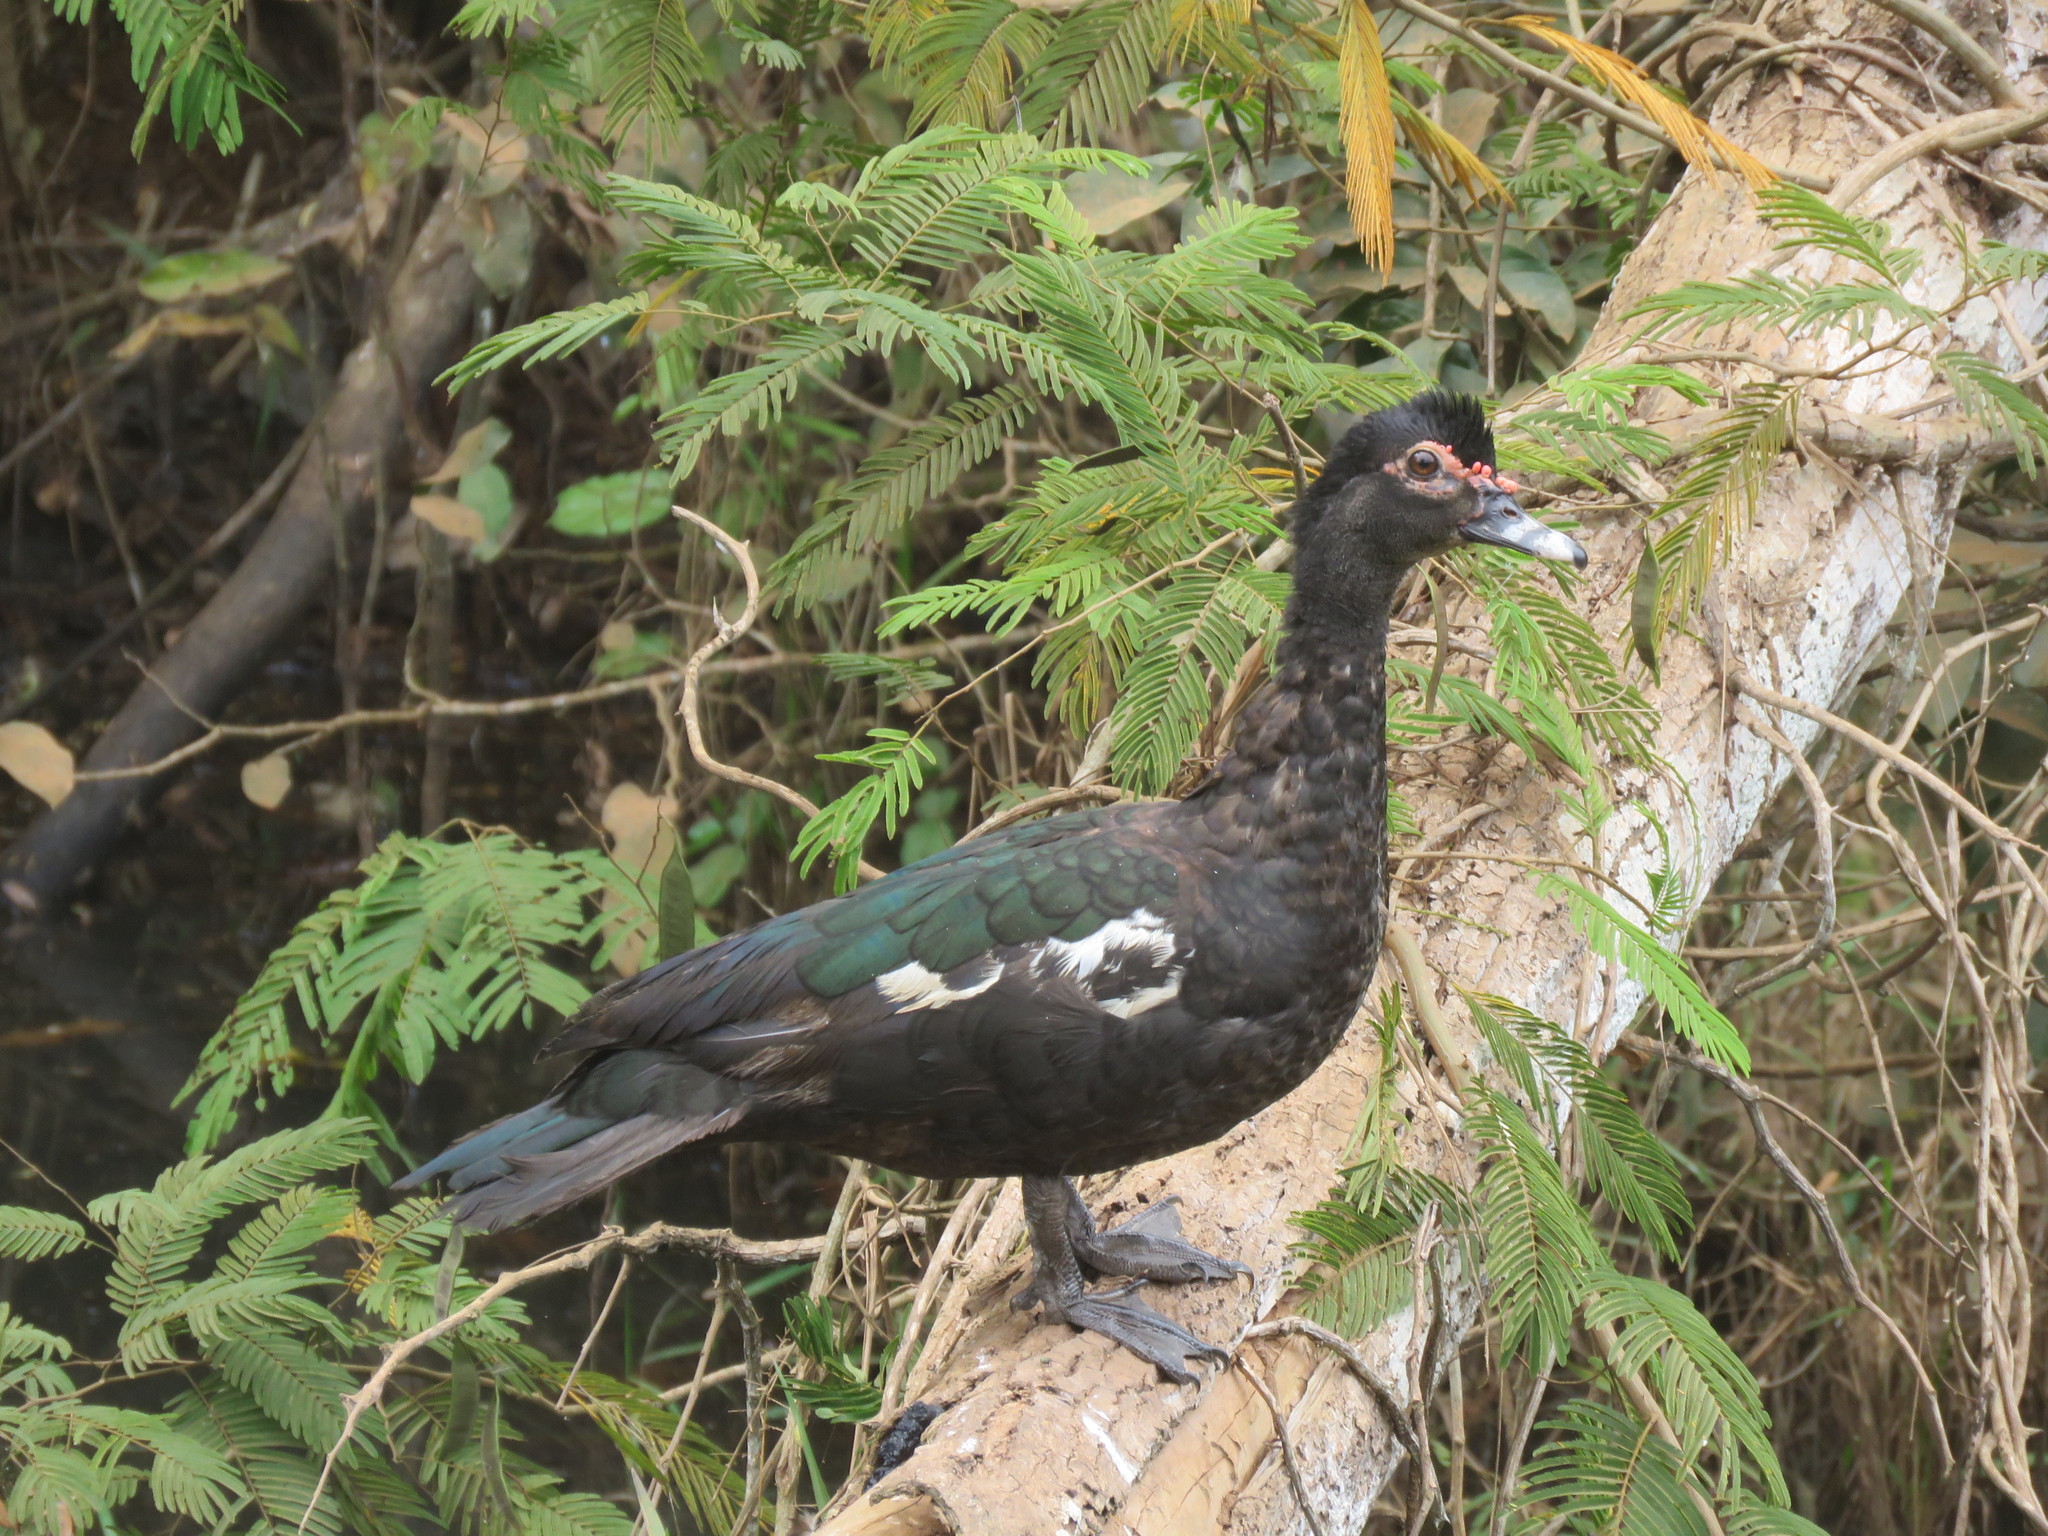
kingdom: Animalia
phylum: Chordata
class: Aves
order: Anseriformes
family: Anatidae
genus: Cairina
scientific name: Cairina moschata
